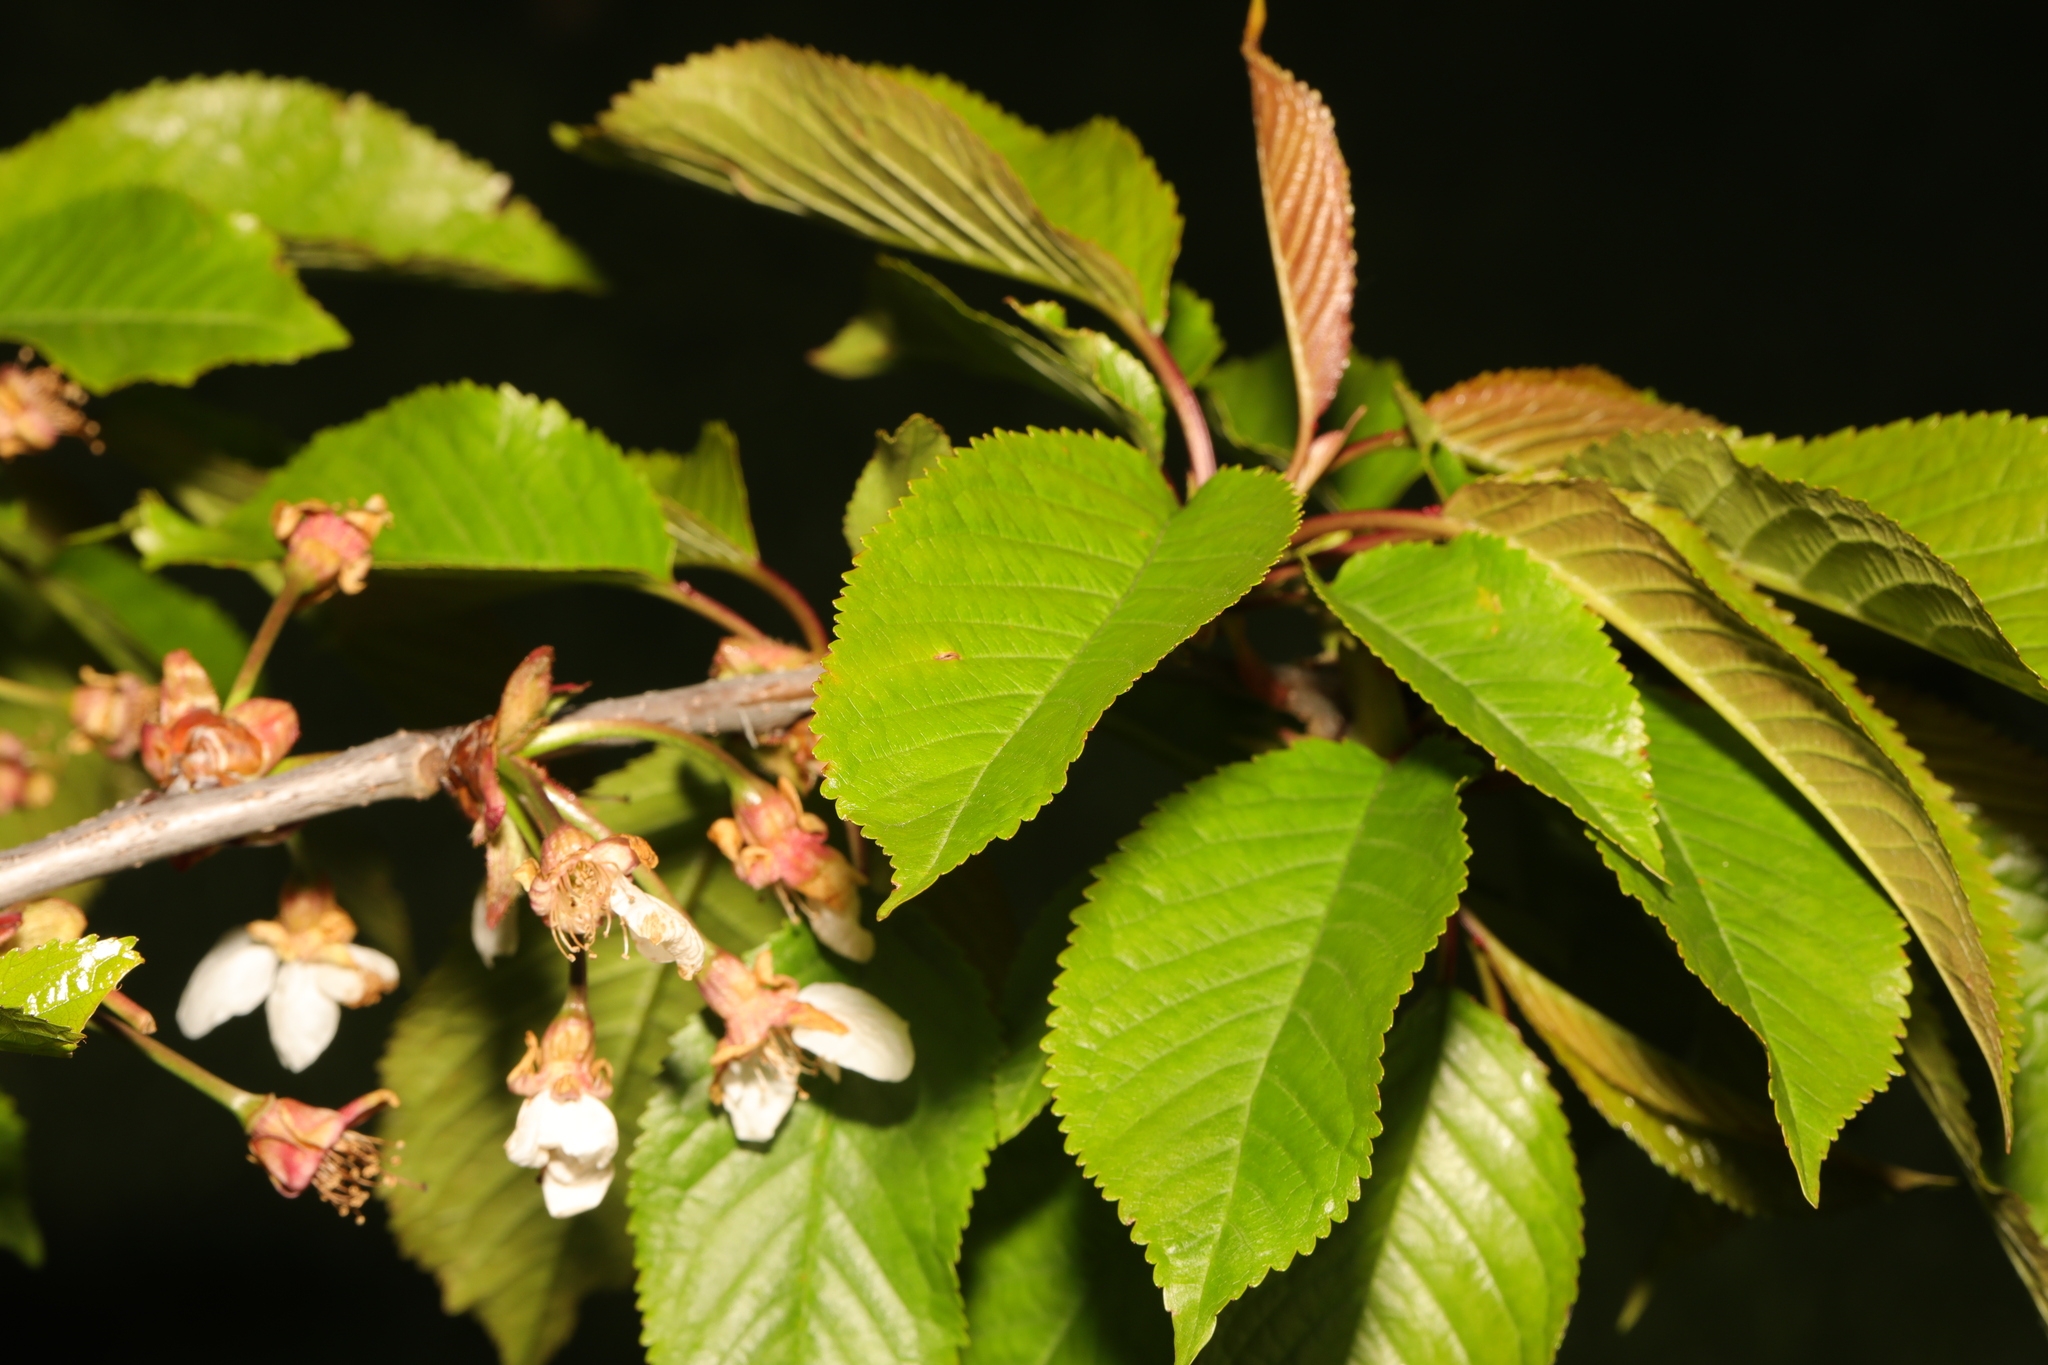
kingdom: Plantae
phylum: Tracheophyta
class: Magnoliopsida
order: Rosales
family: Rosaceae
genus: Prunus
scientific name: Prunus avium
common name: Sweet cherry
